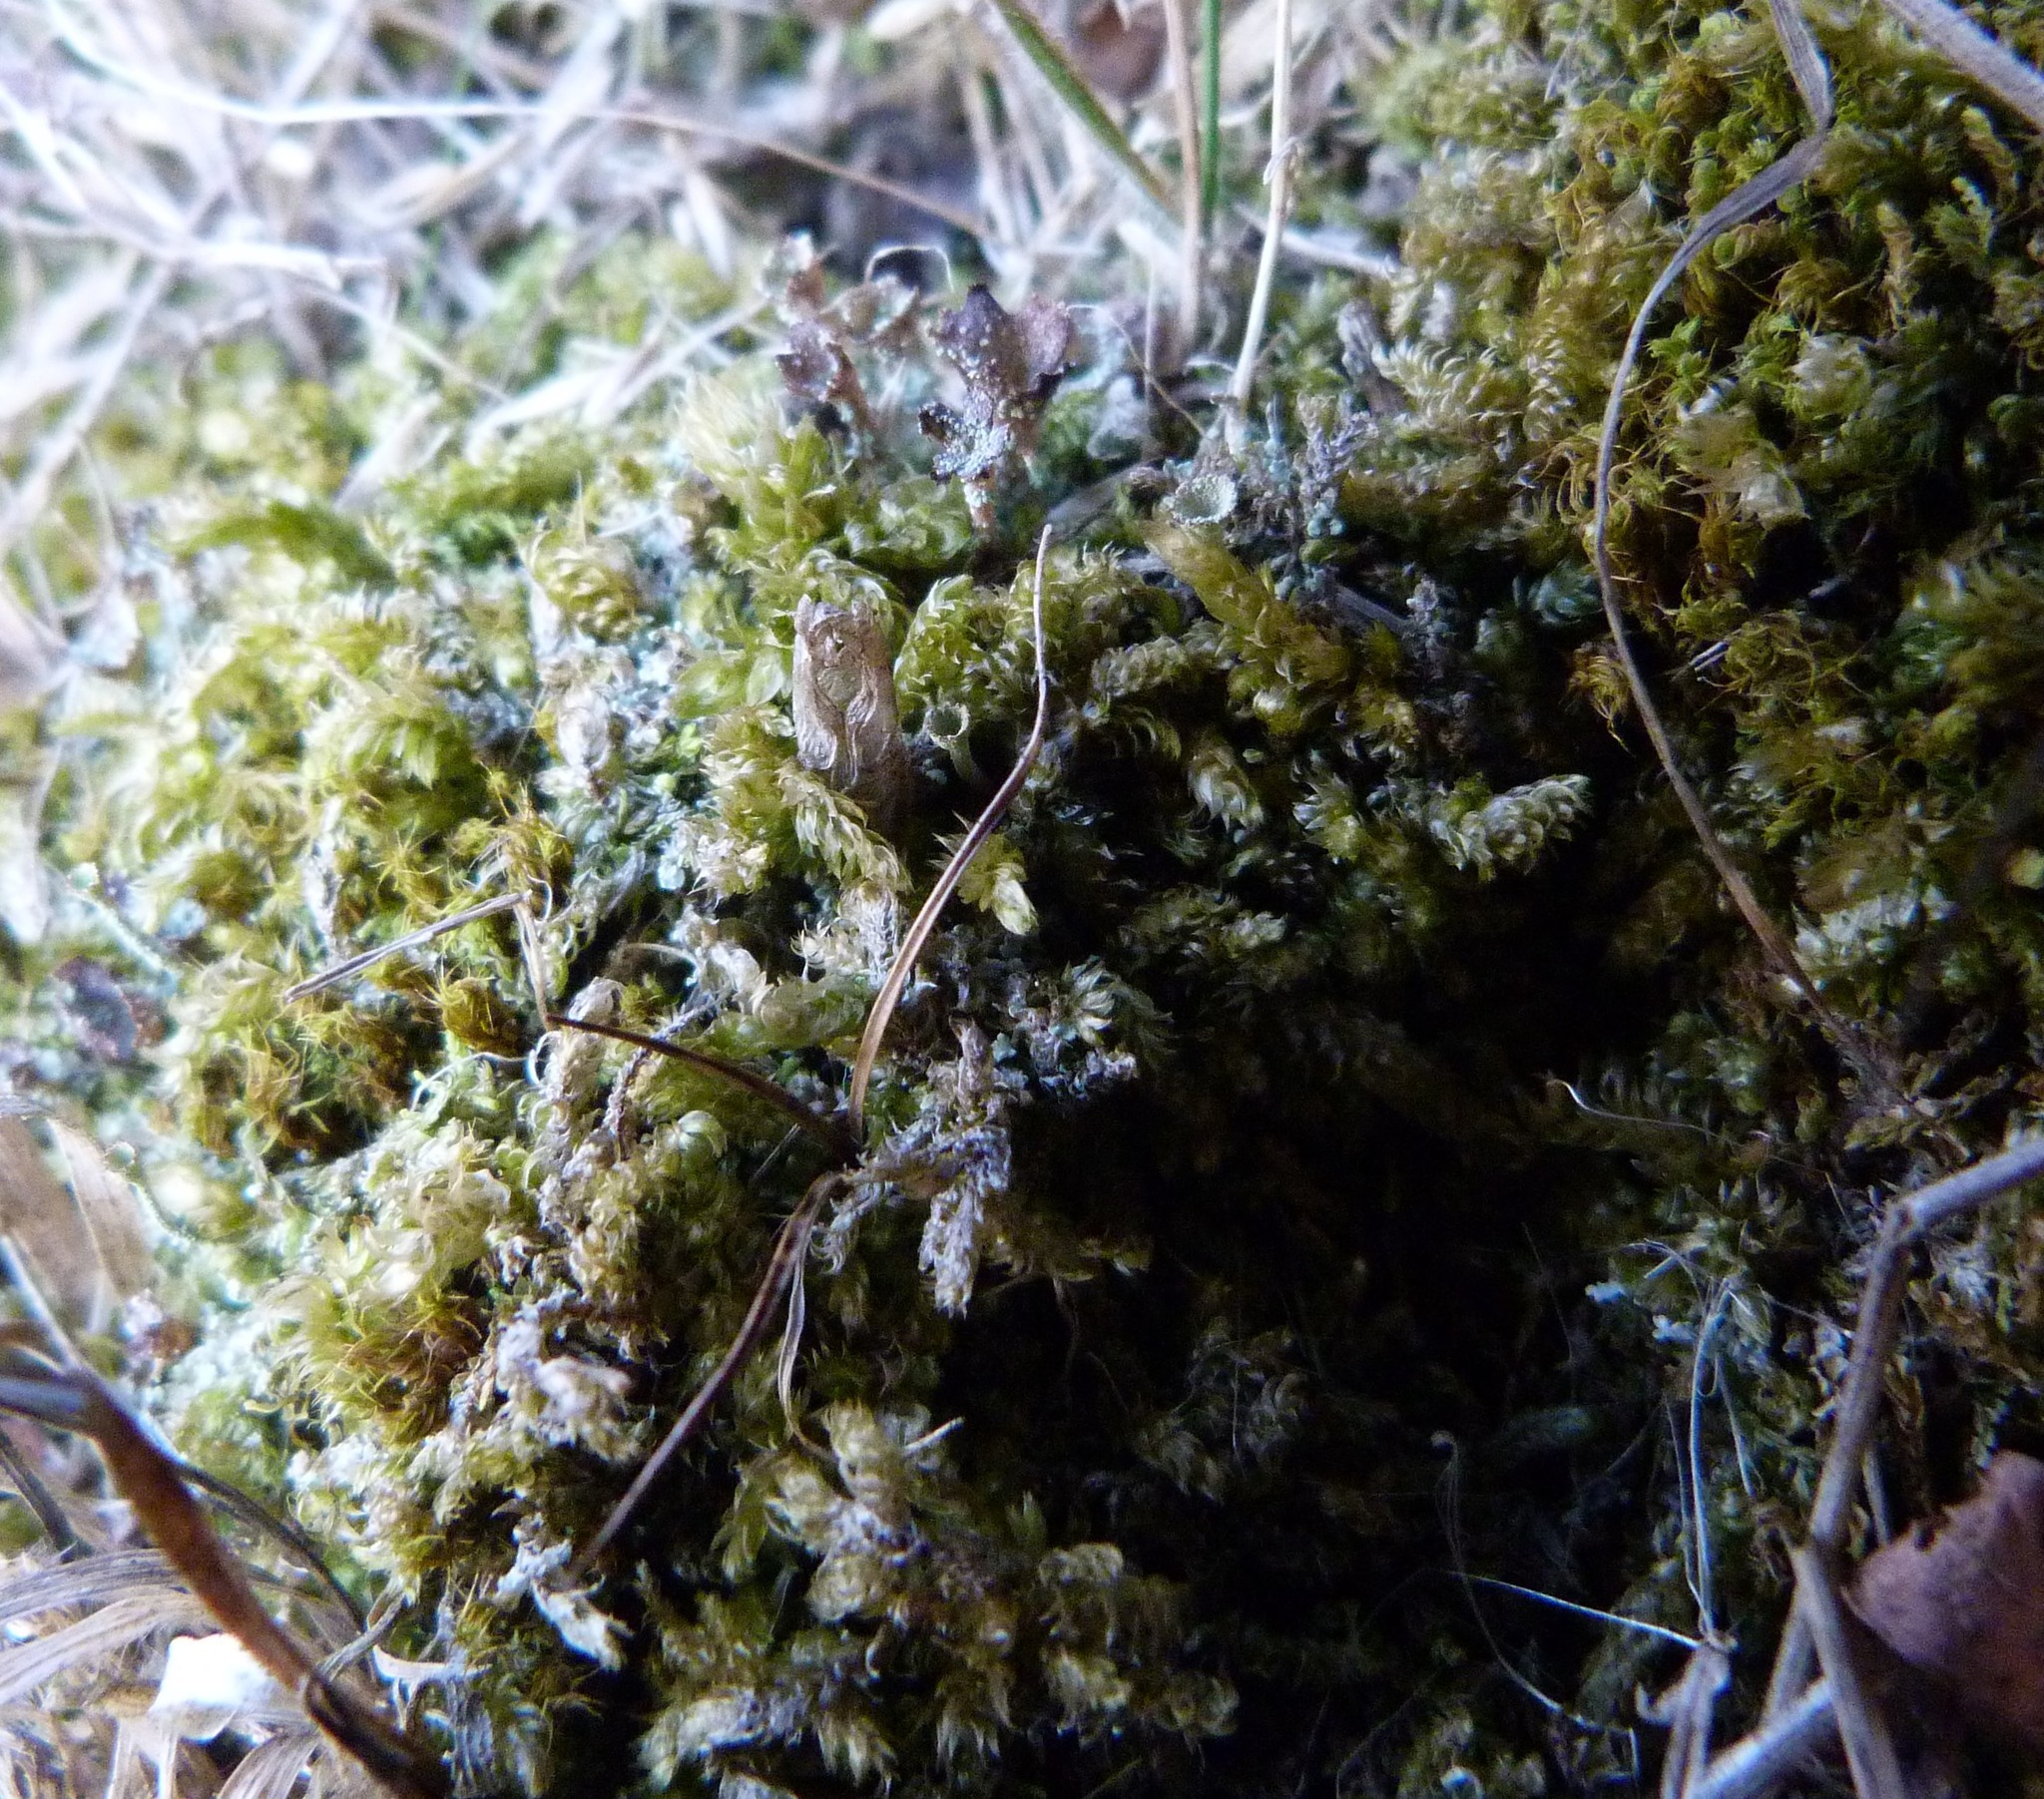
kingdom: Plantae
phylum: Bryophyta
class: Bryopsida
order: Hypnales
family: Hypnaceae
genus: Hypnum
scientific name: Hypnum cupressiforme
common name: Cypress-leaved plait-moss
